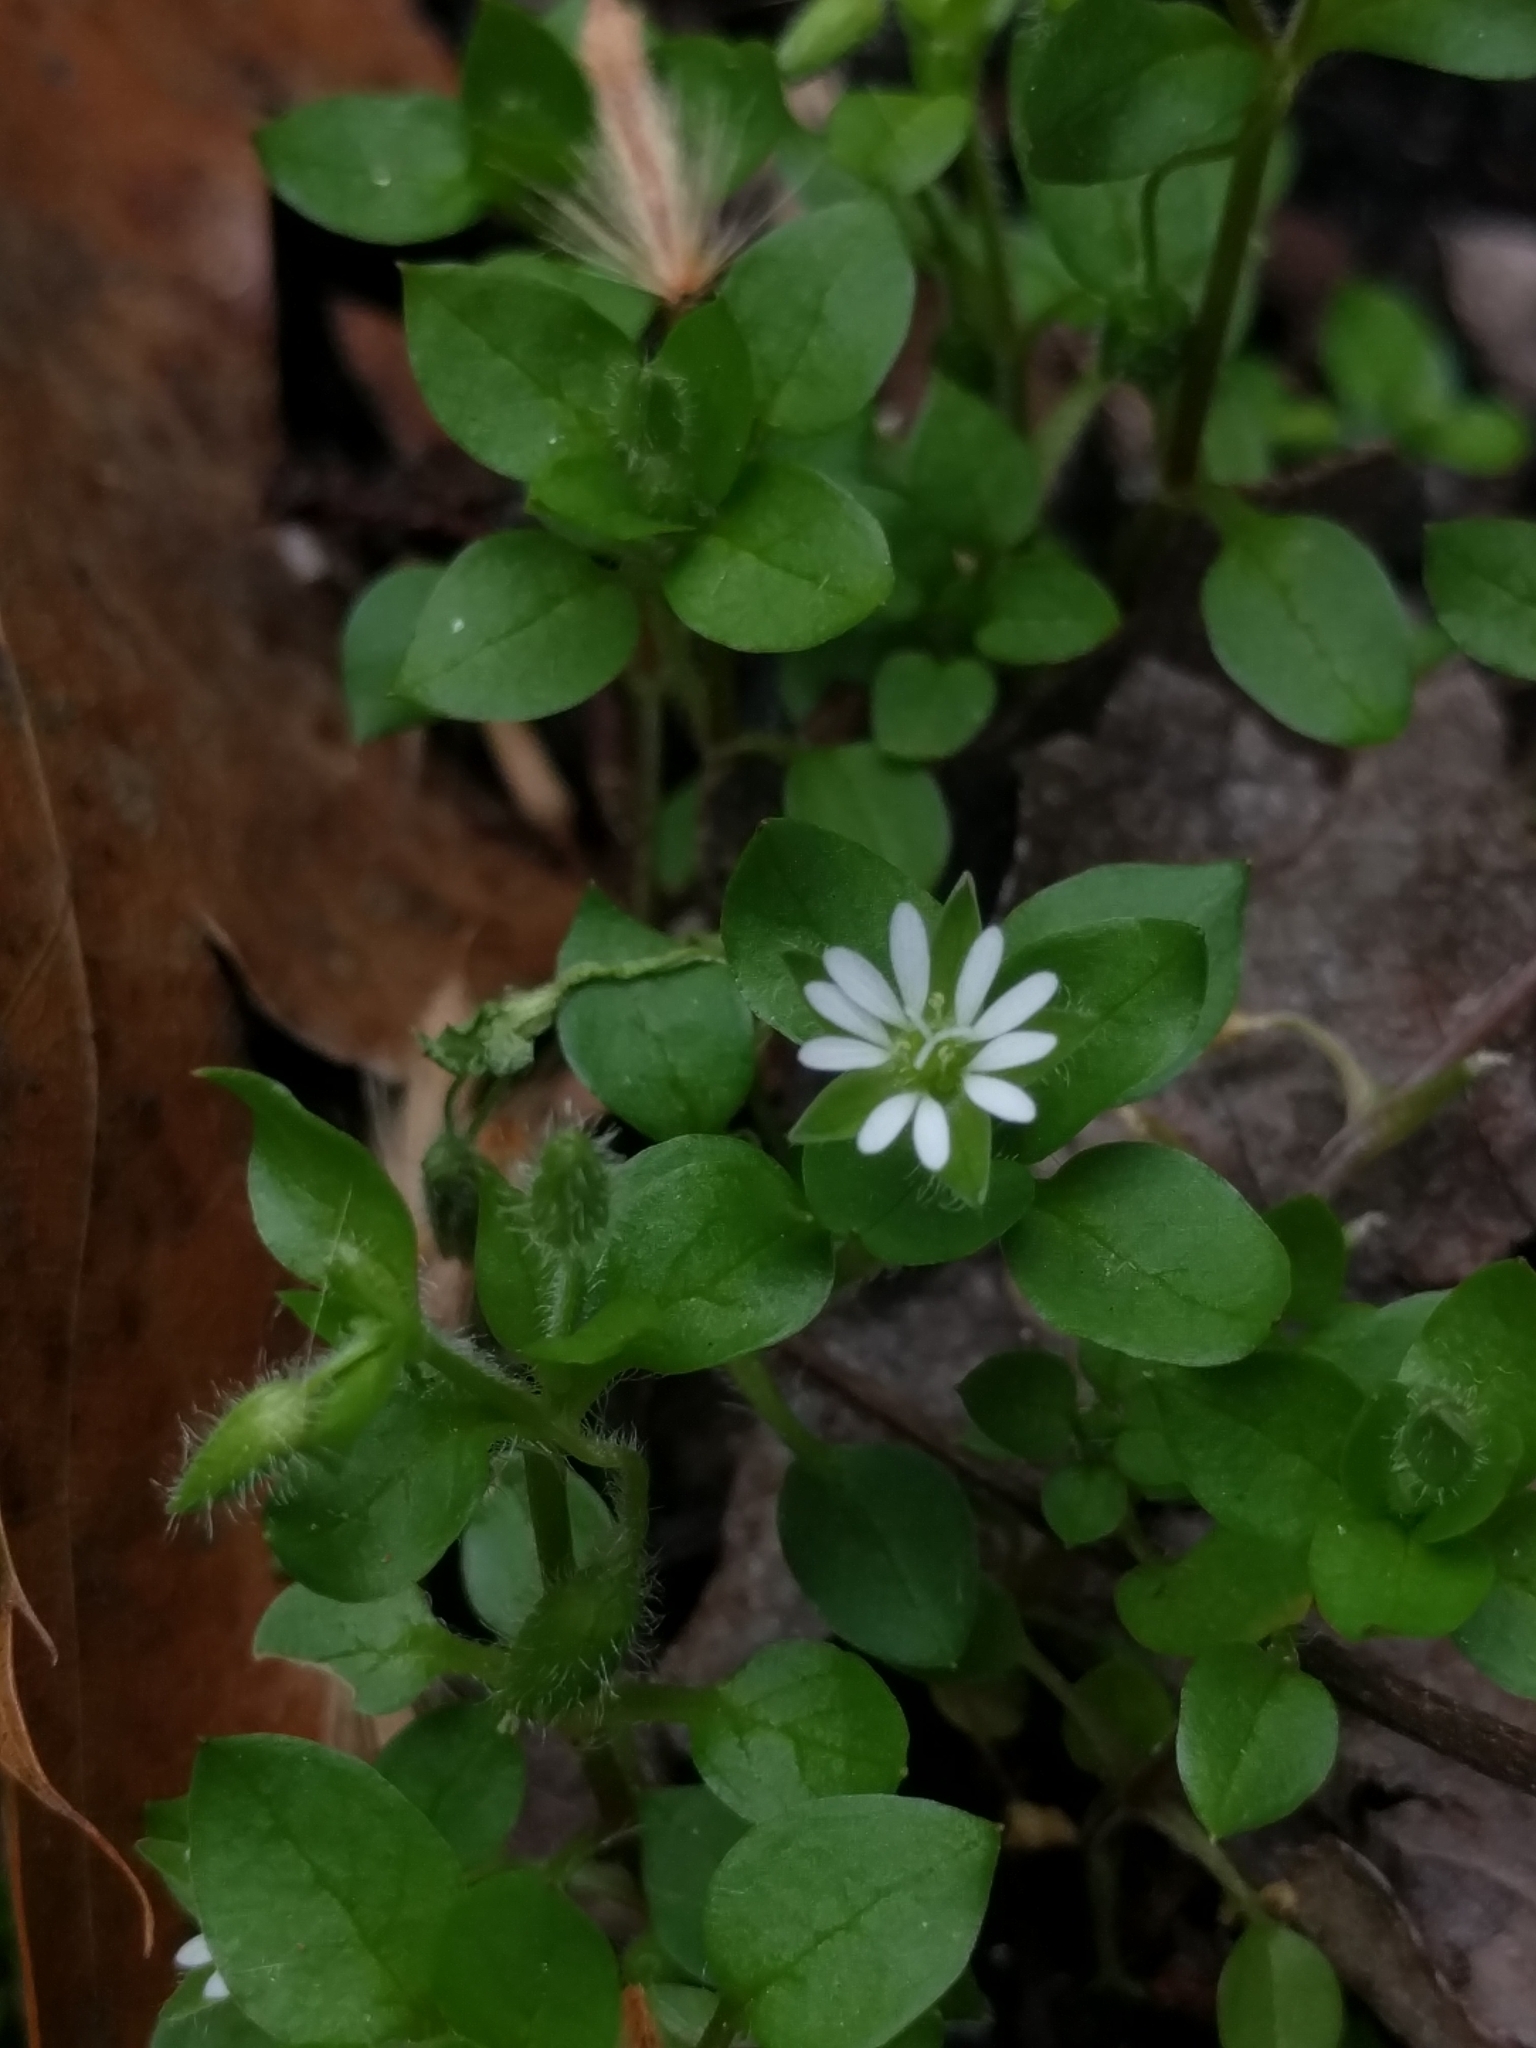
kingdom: Plantae
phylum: Tracheophyta
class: Magnoliopsida
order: Caryophyllales
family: Caryophyllaceae
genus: Stellaria
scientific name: Stellaria media
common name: Common chickweed
